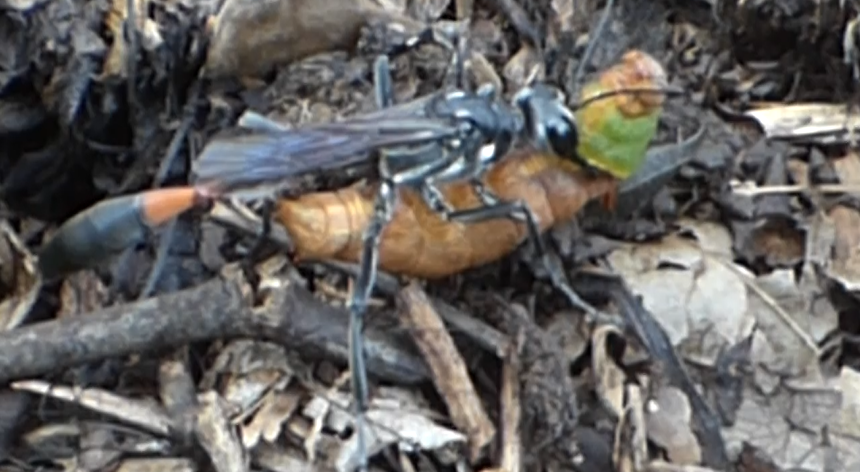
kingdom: Animalia
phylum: Arthropoda
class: Insecta
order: Hymenoptera
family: Sphecidae
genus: Ammophila
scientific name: Ammophila procera
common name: Common thread-waisted wasp
